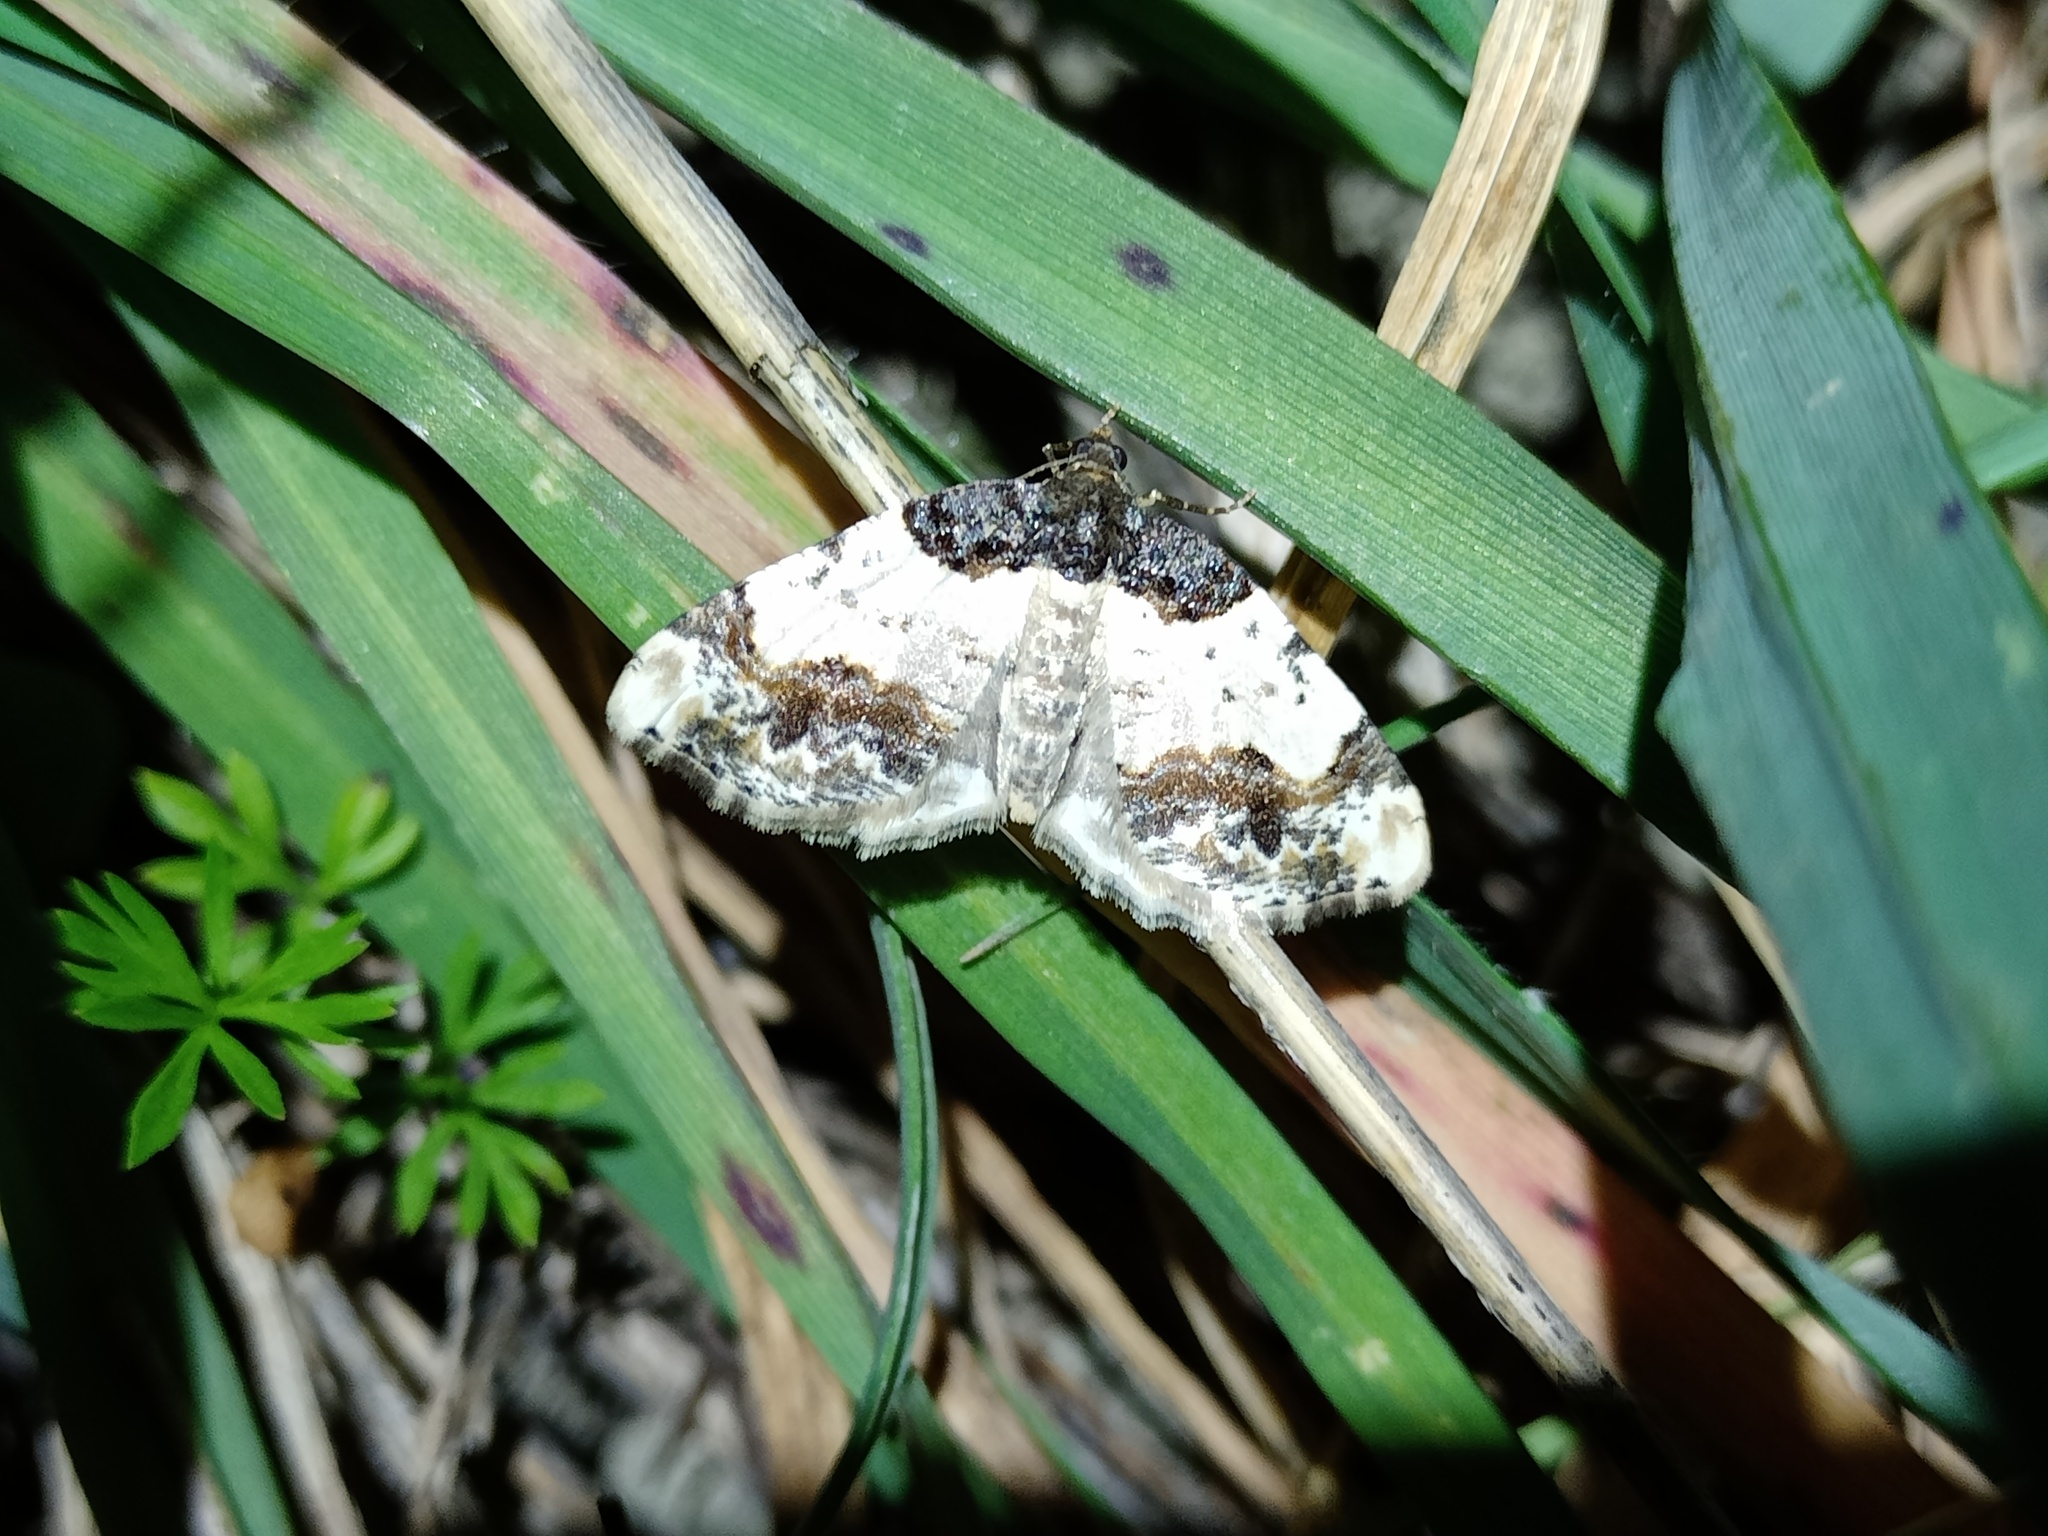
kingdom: Animalia
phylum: Arthropoda
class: Insecta
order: Lepidoptera
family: Geometridae
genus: Ligdia
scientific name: Ligdia adustata
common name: Scorched carpet
